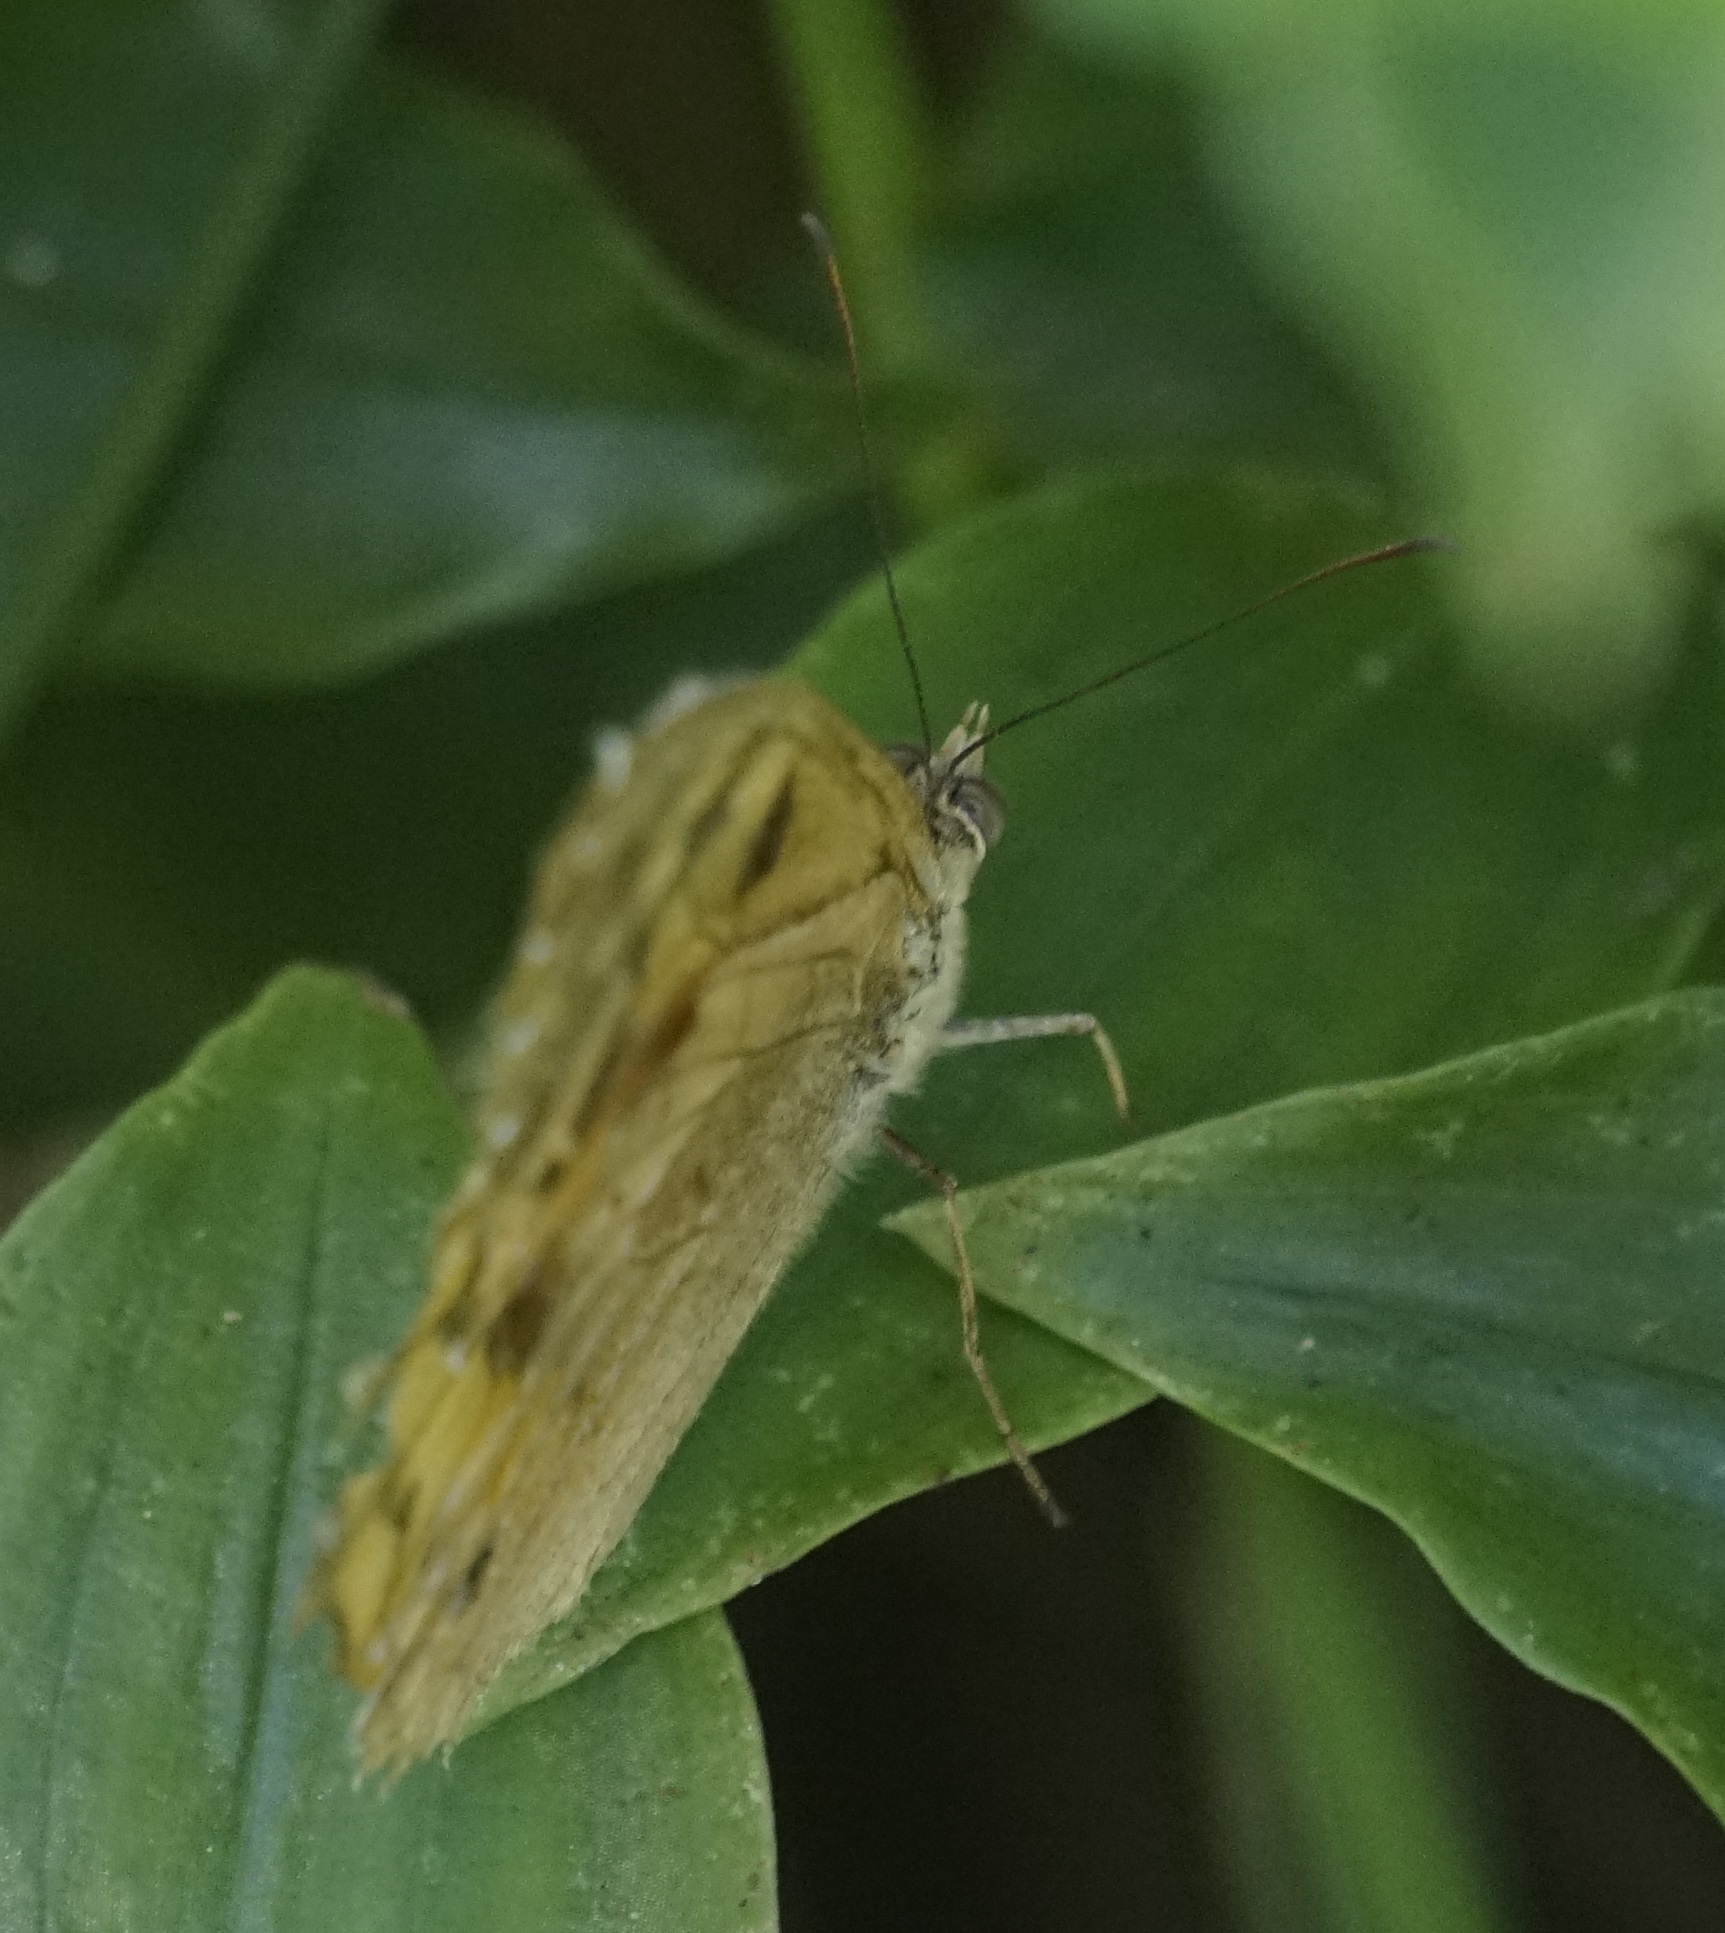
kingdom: Animalia
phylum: Arthropoda
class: Insecta
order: Lepidoptera
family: Nymphalidae
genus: Heteronympha
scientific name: Heteronympha merope
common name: Common brown
